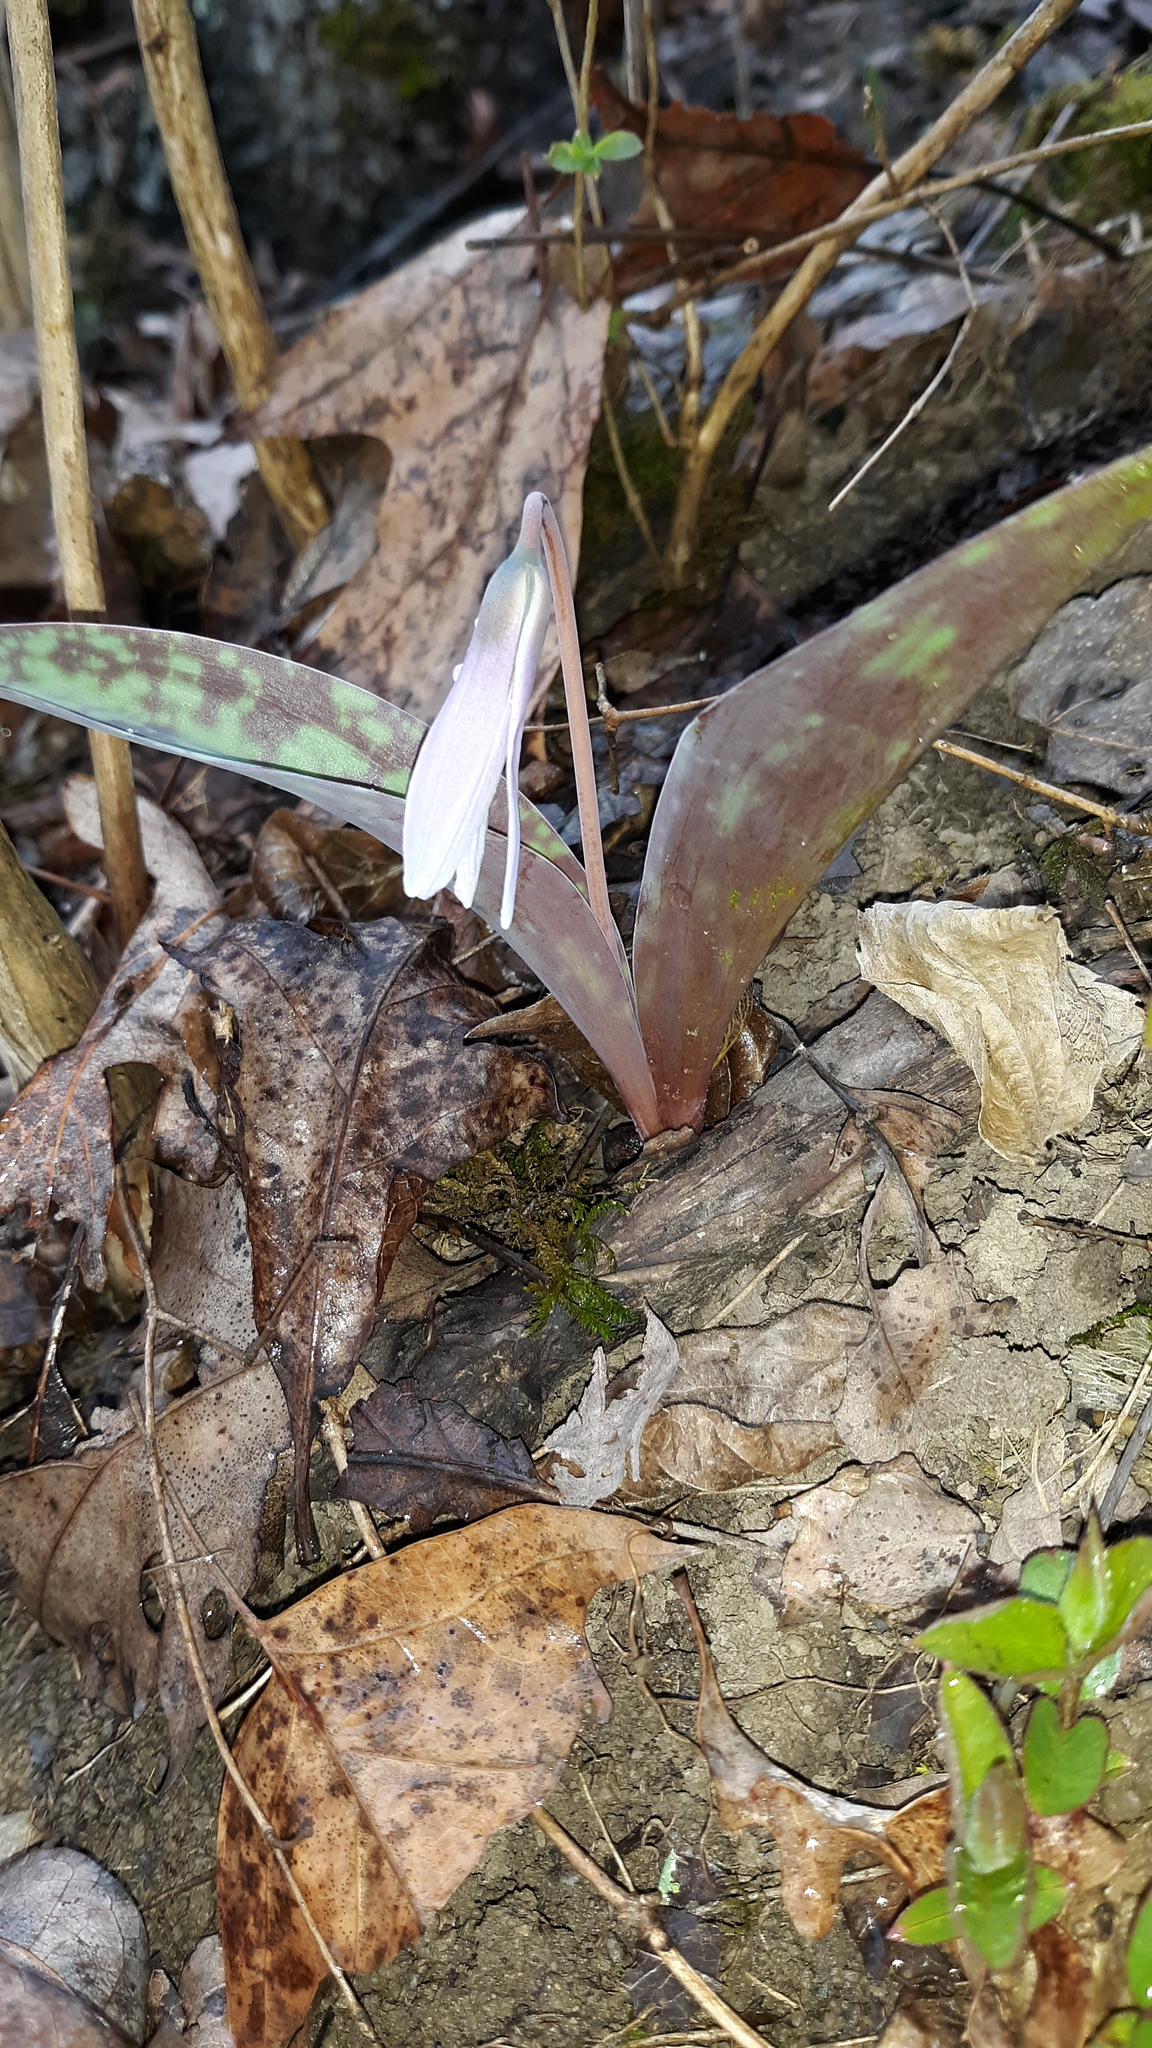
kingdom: Plantae
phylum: Tracheophyta
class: Liliopsida
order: Liliales
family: Liliaceae
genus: Erythronium
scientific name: Erythronium albidum
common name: White trout-lily
